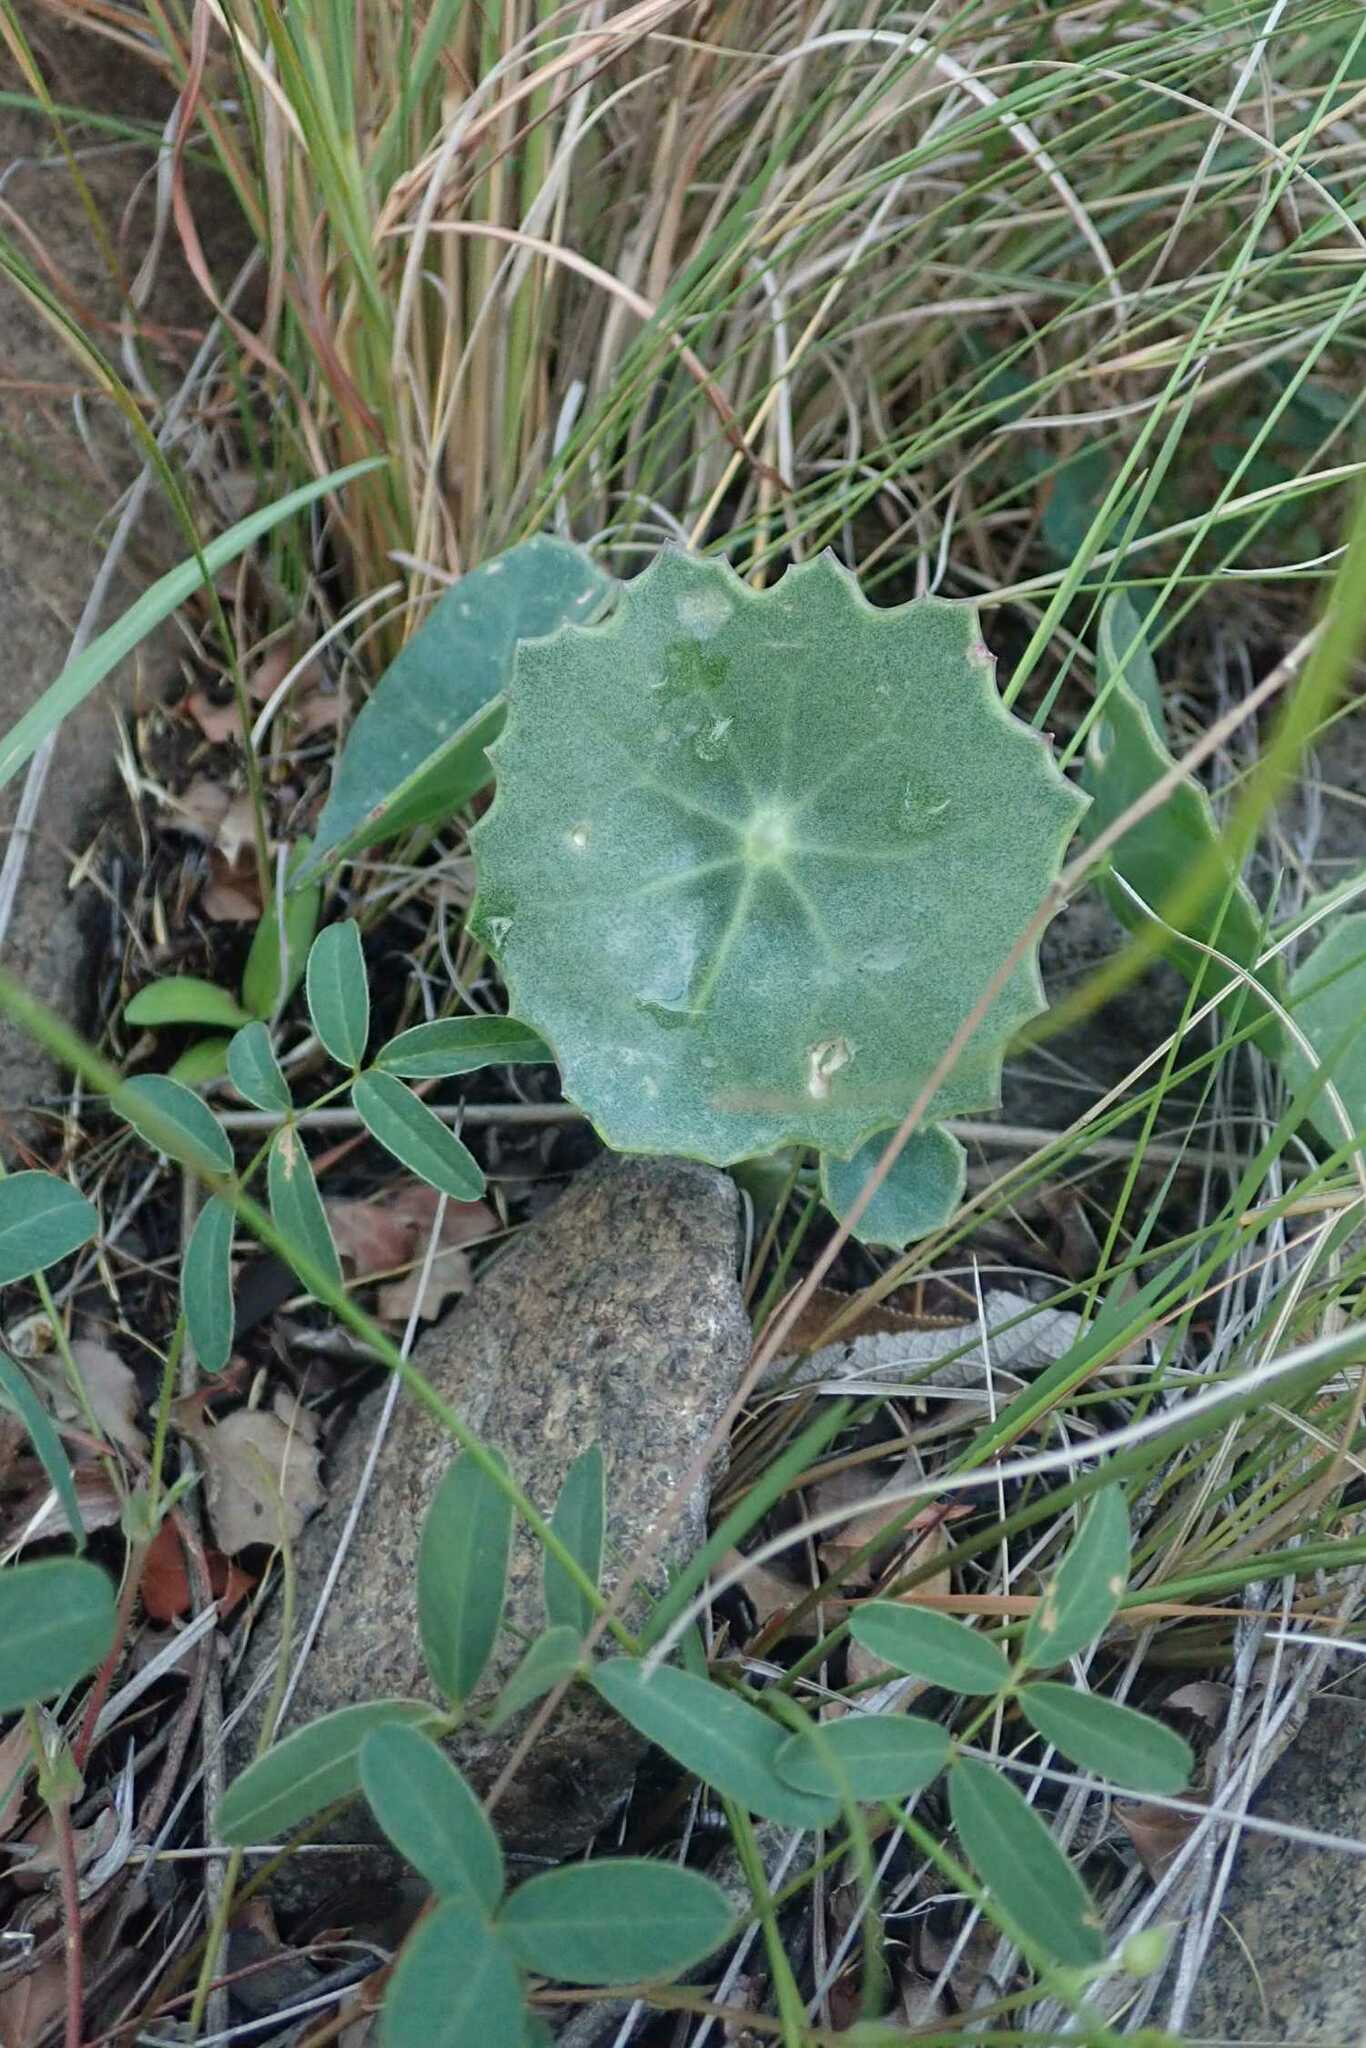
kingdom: Plantae
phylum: Tracheophyta
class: Magnoliopsida
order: Asterales
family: Asteraceae
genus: Senecio
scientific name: Senecio oxyriifolius
